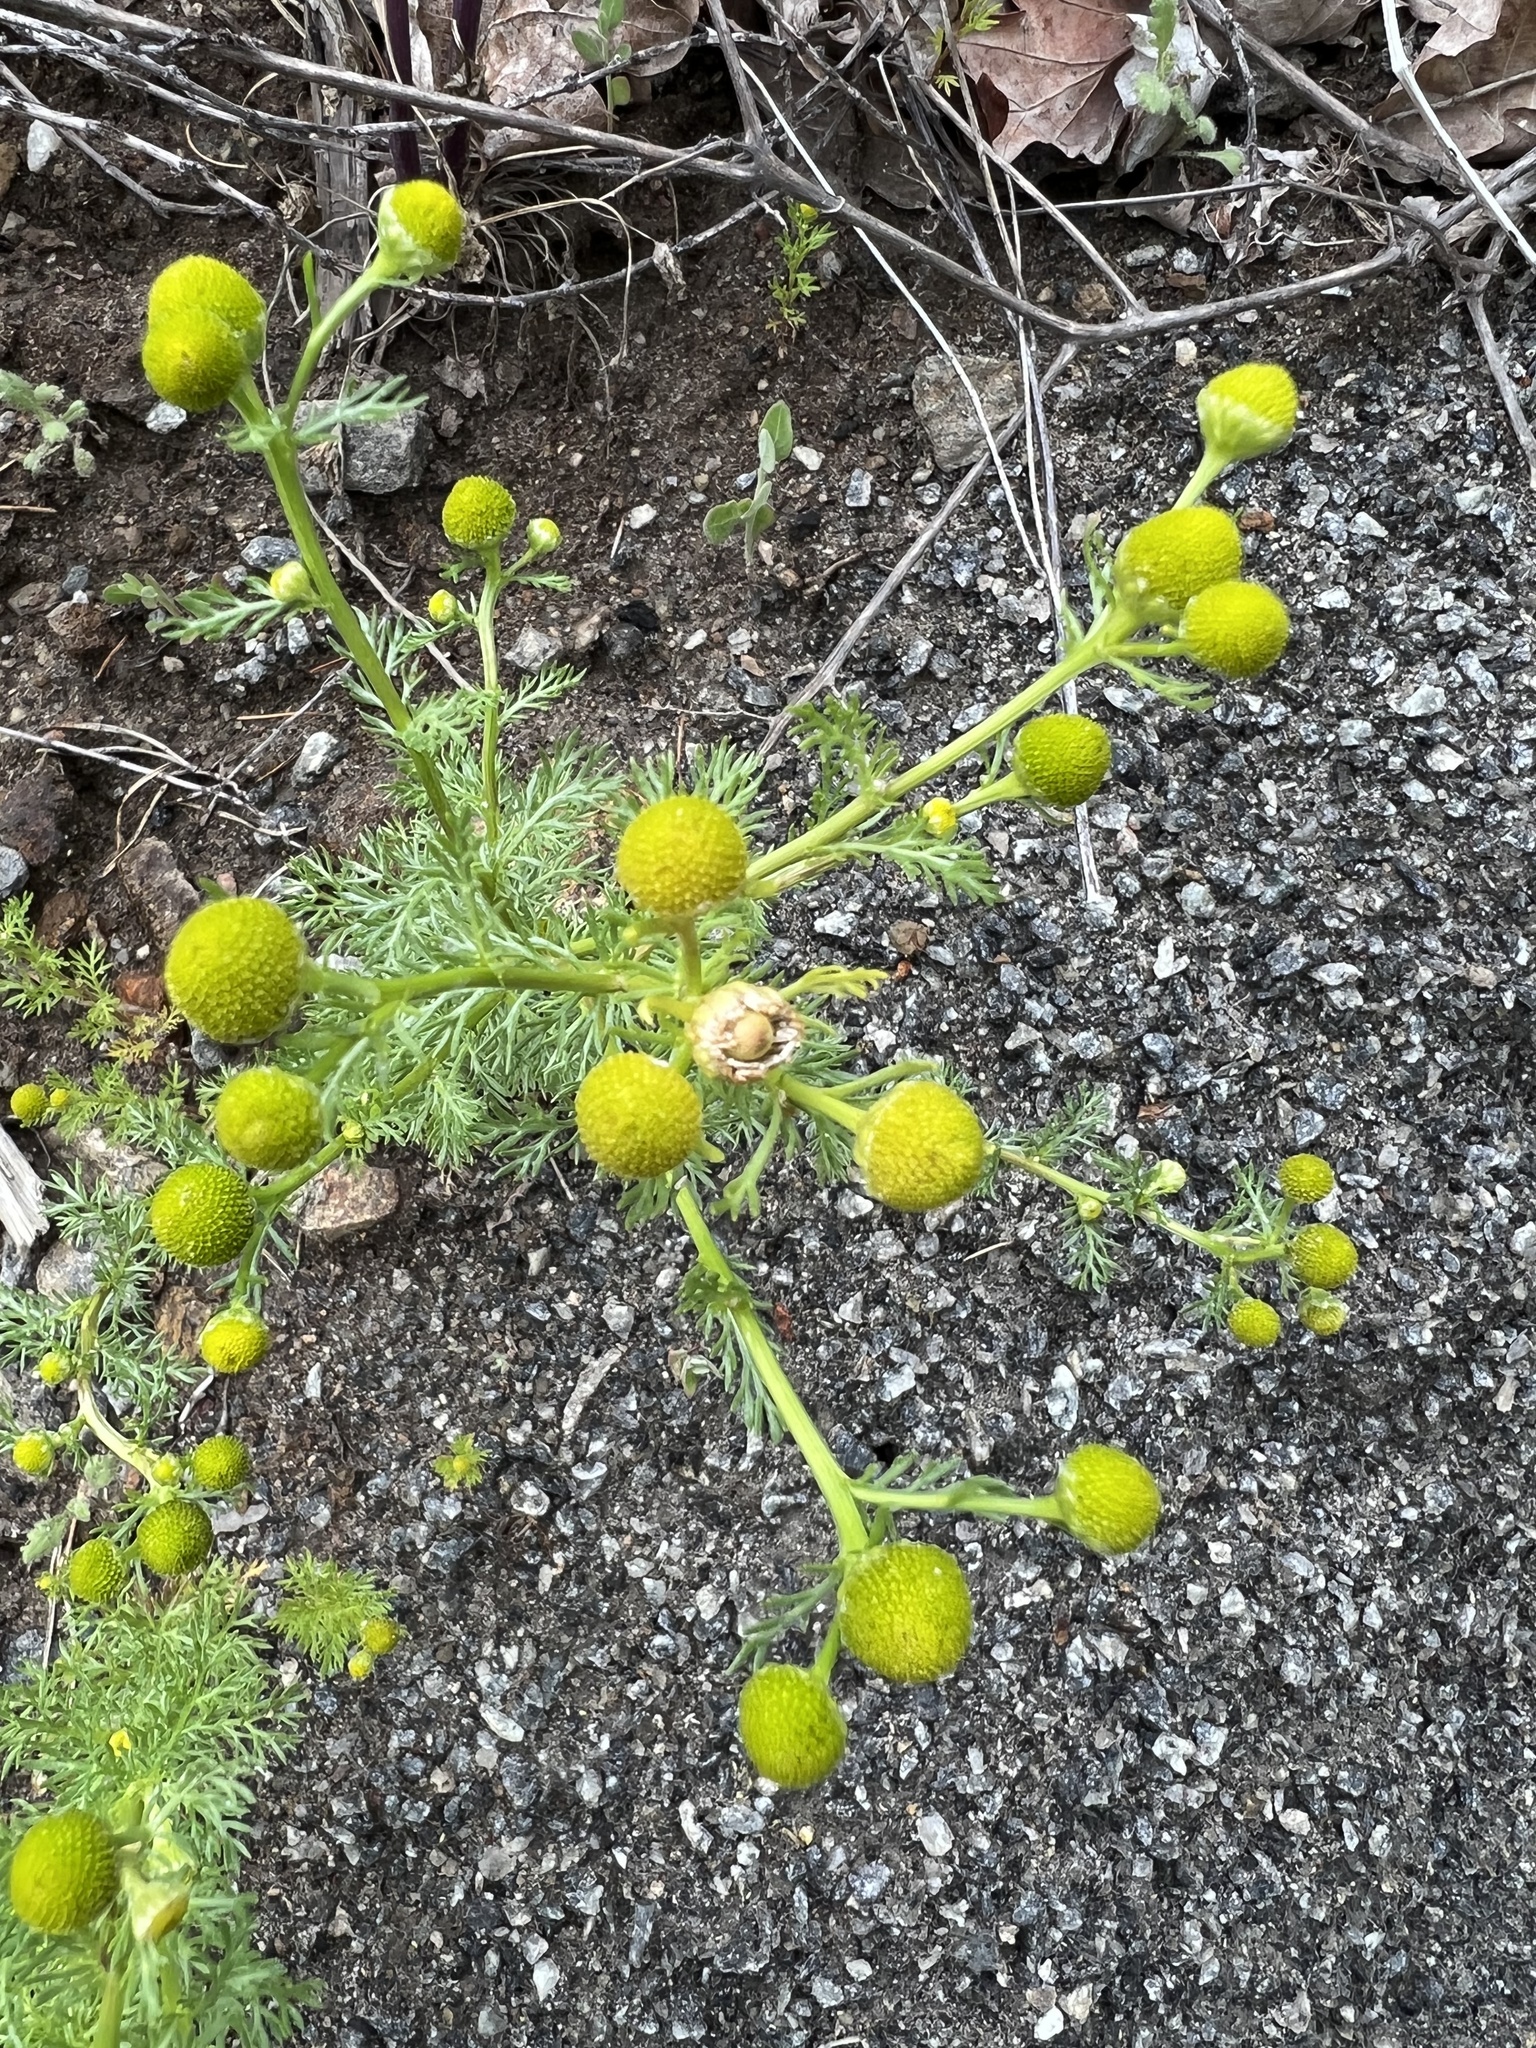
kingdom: Plantae
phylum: Tracheophyta
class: Magnoliopsida
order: Asterales
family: Asteraceae
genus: Matricaria
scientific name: Matricaria discoidea
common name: Disc mayweed
